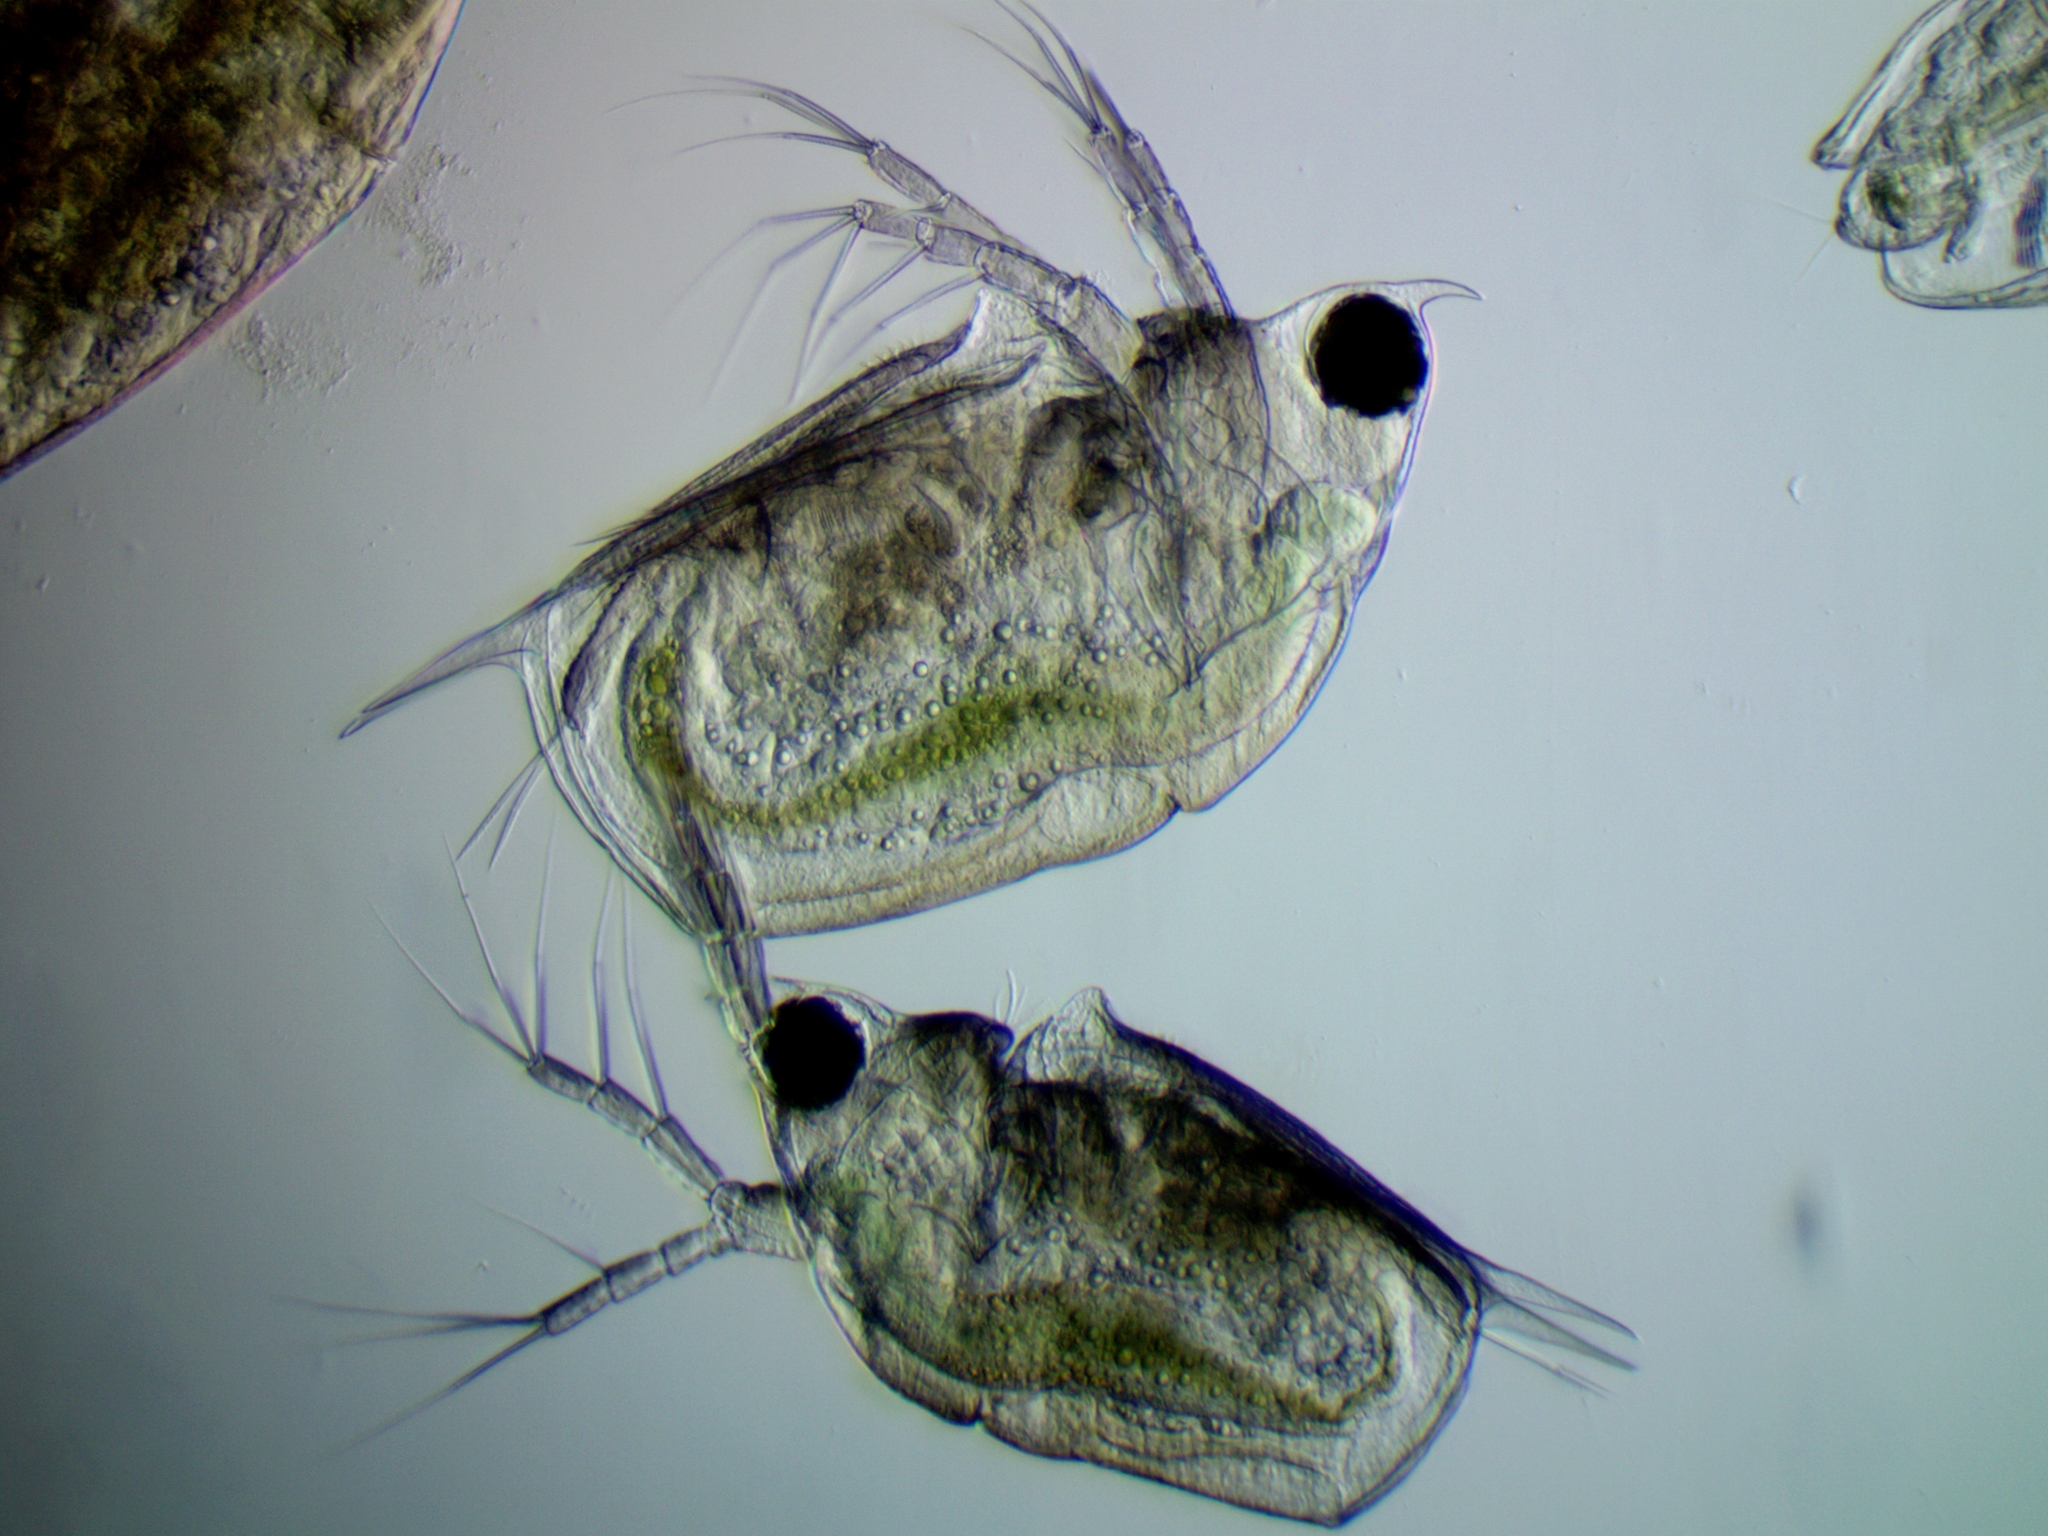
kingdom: Animalia
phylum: Arthropoda
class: Branchiopoda
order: Diplostraca
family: Daphniidae
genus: Scapholeberis
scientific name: Scapholeberis mucronata
